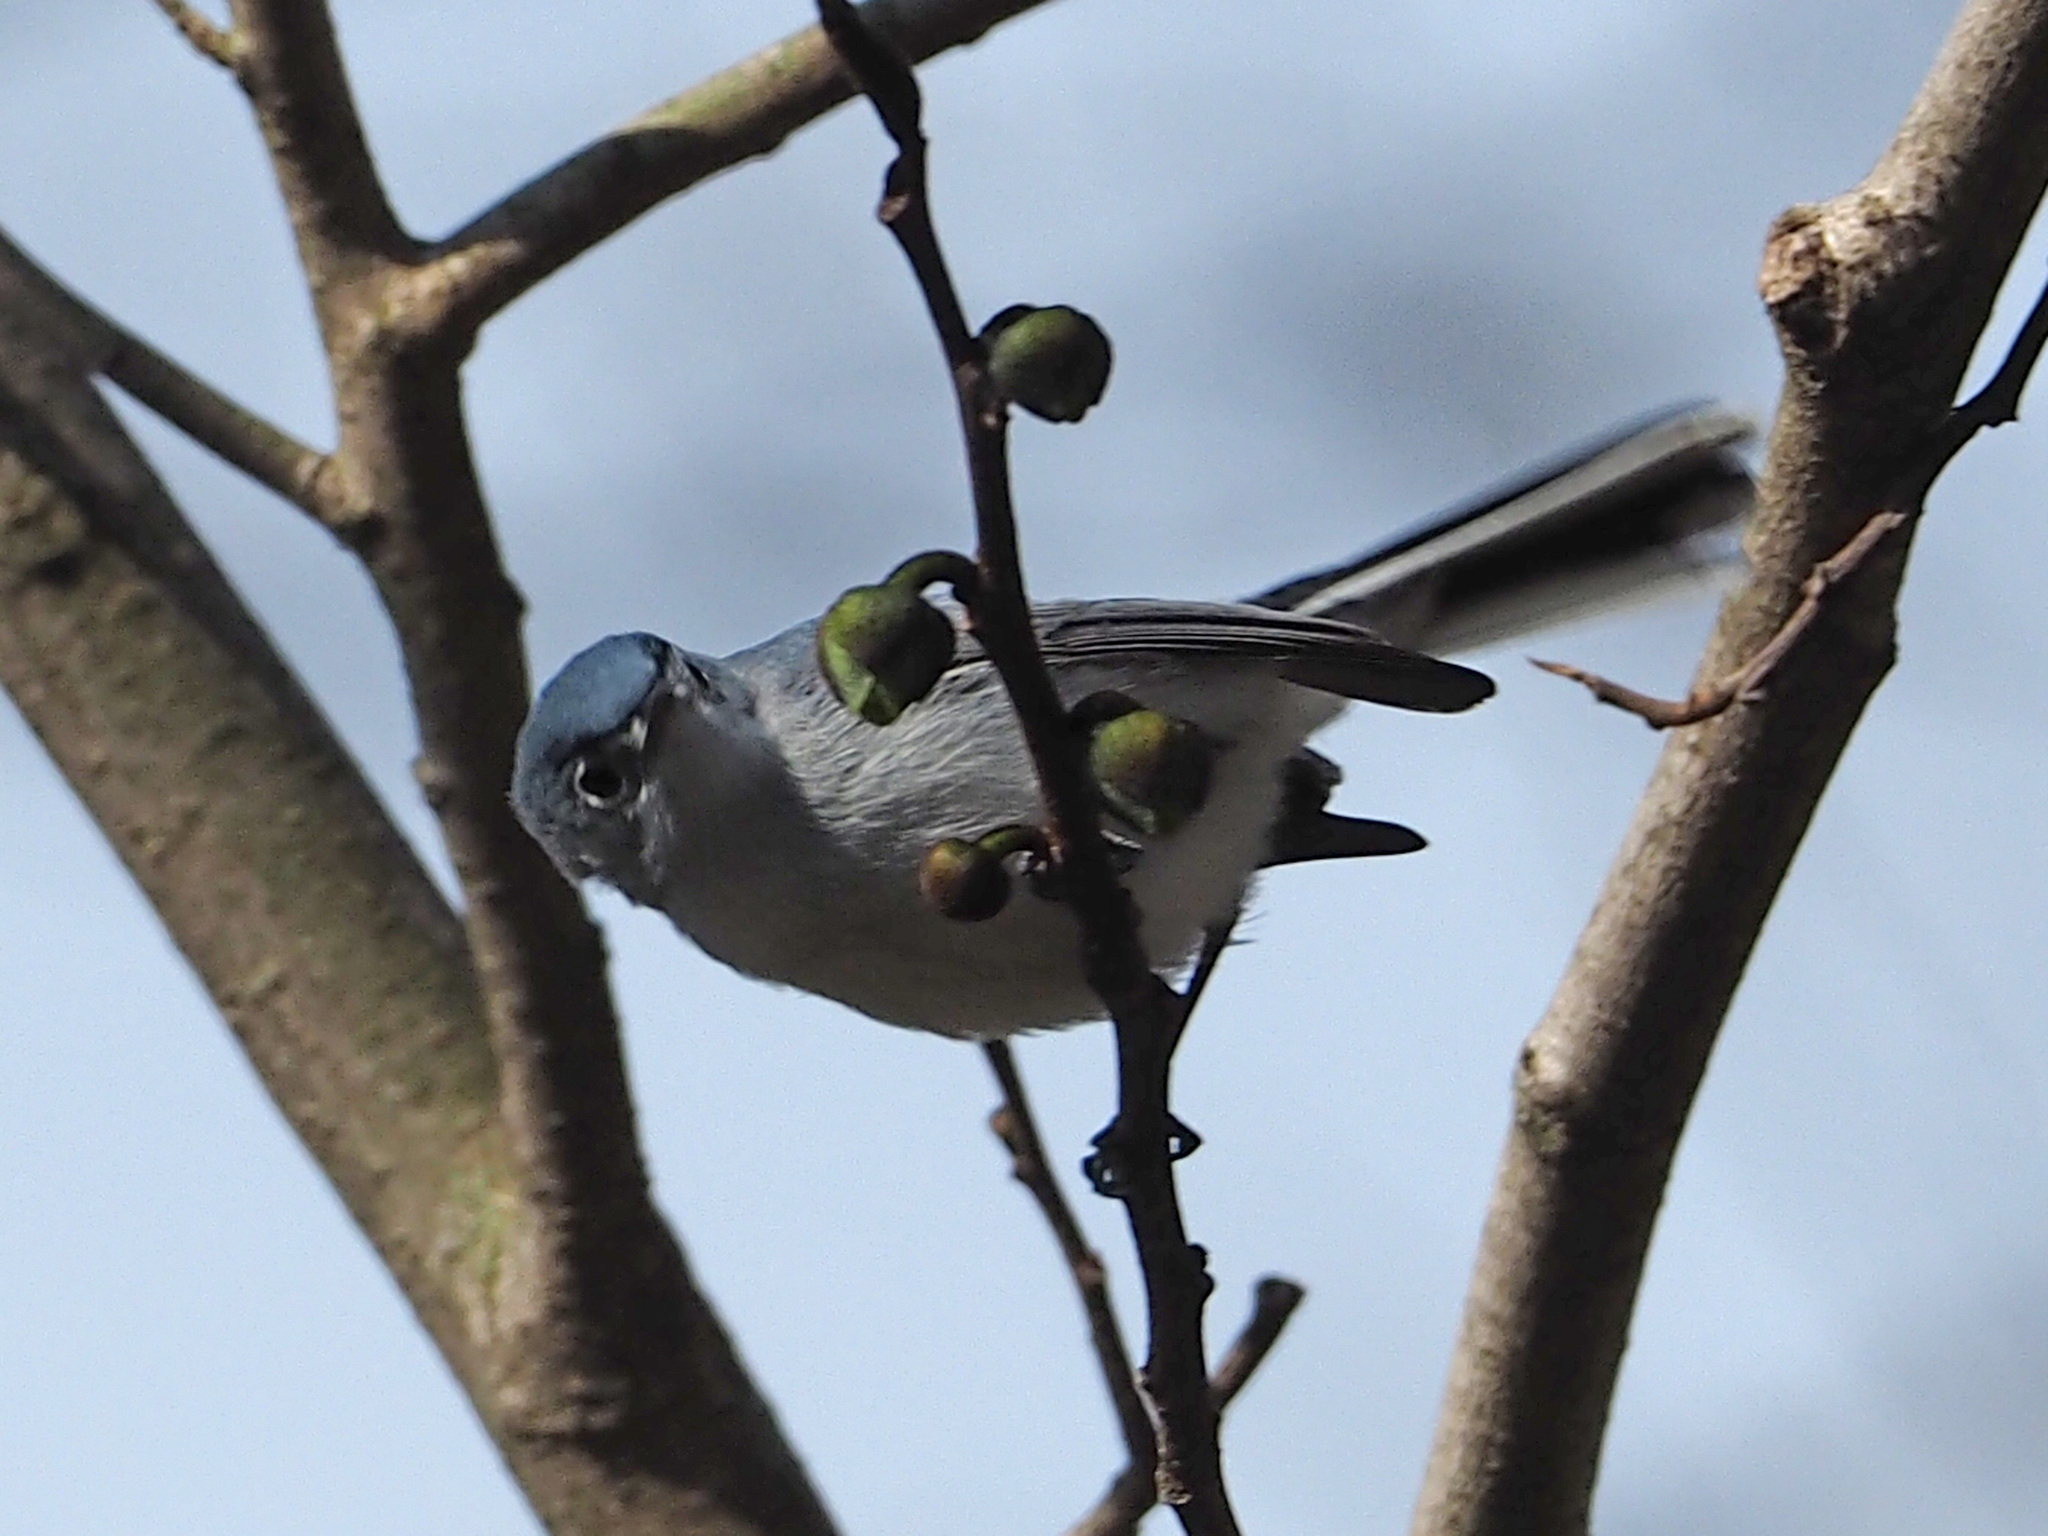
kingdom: Animalia
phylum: Chordata
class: Aves
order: Passeriformes
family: Polioptilidae
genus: Polioptila
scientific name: Polioptila caerulea
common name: Blue-gray gnatcatcher
